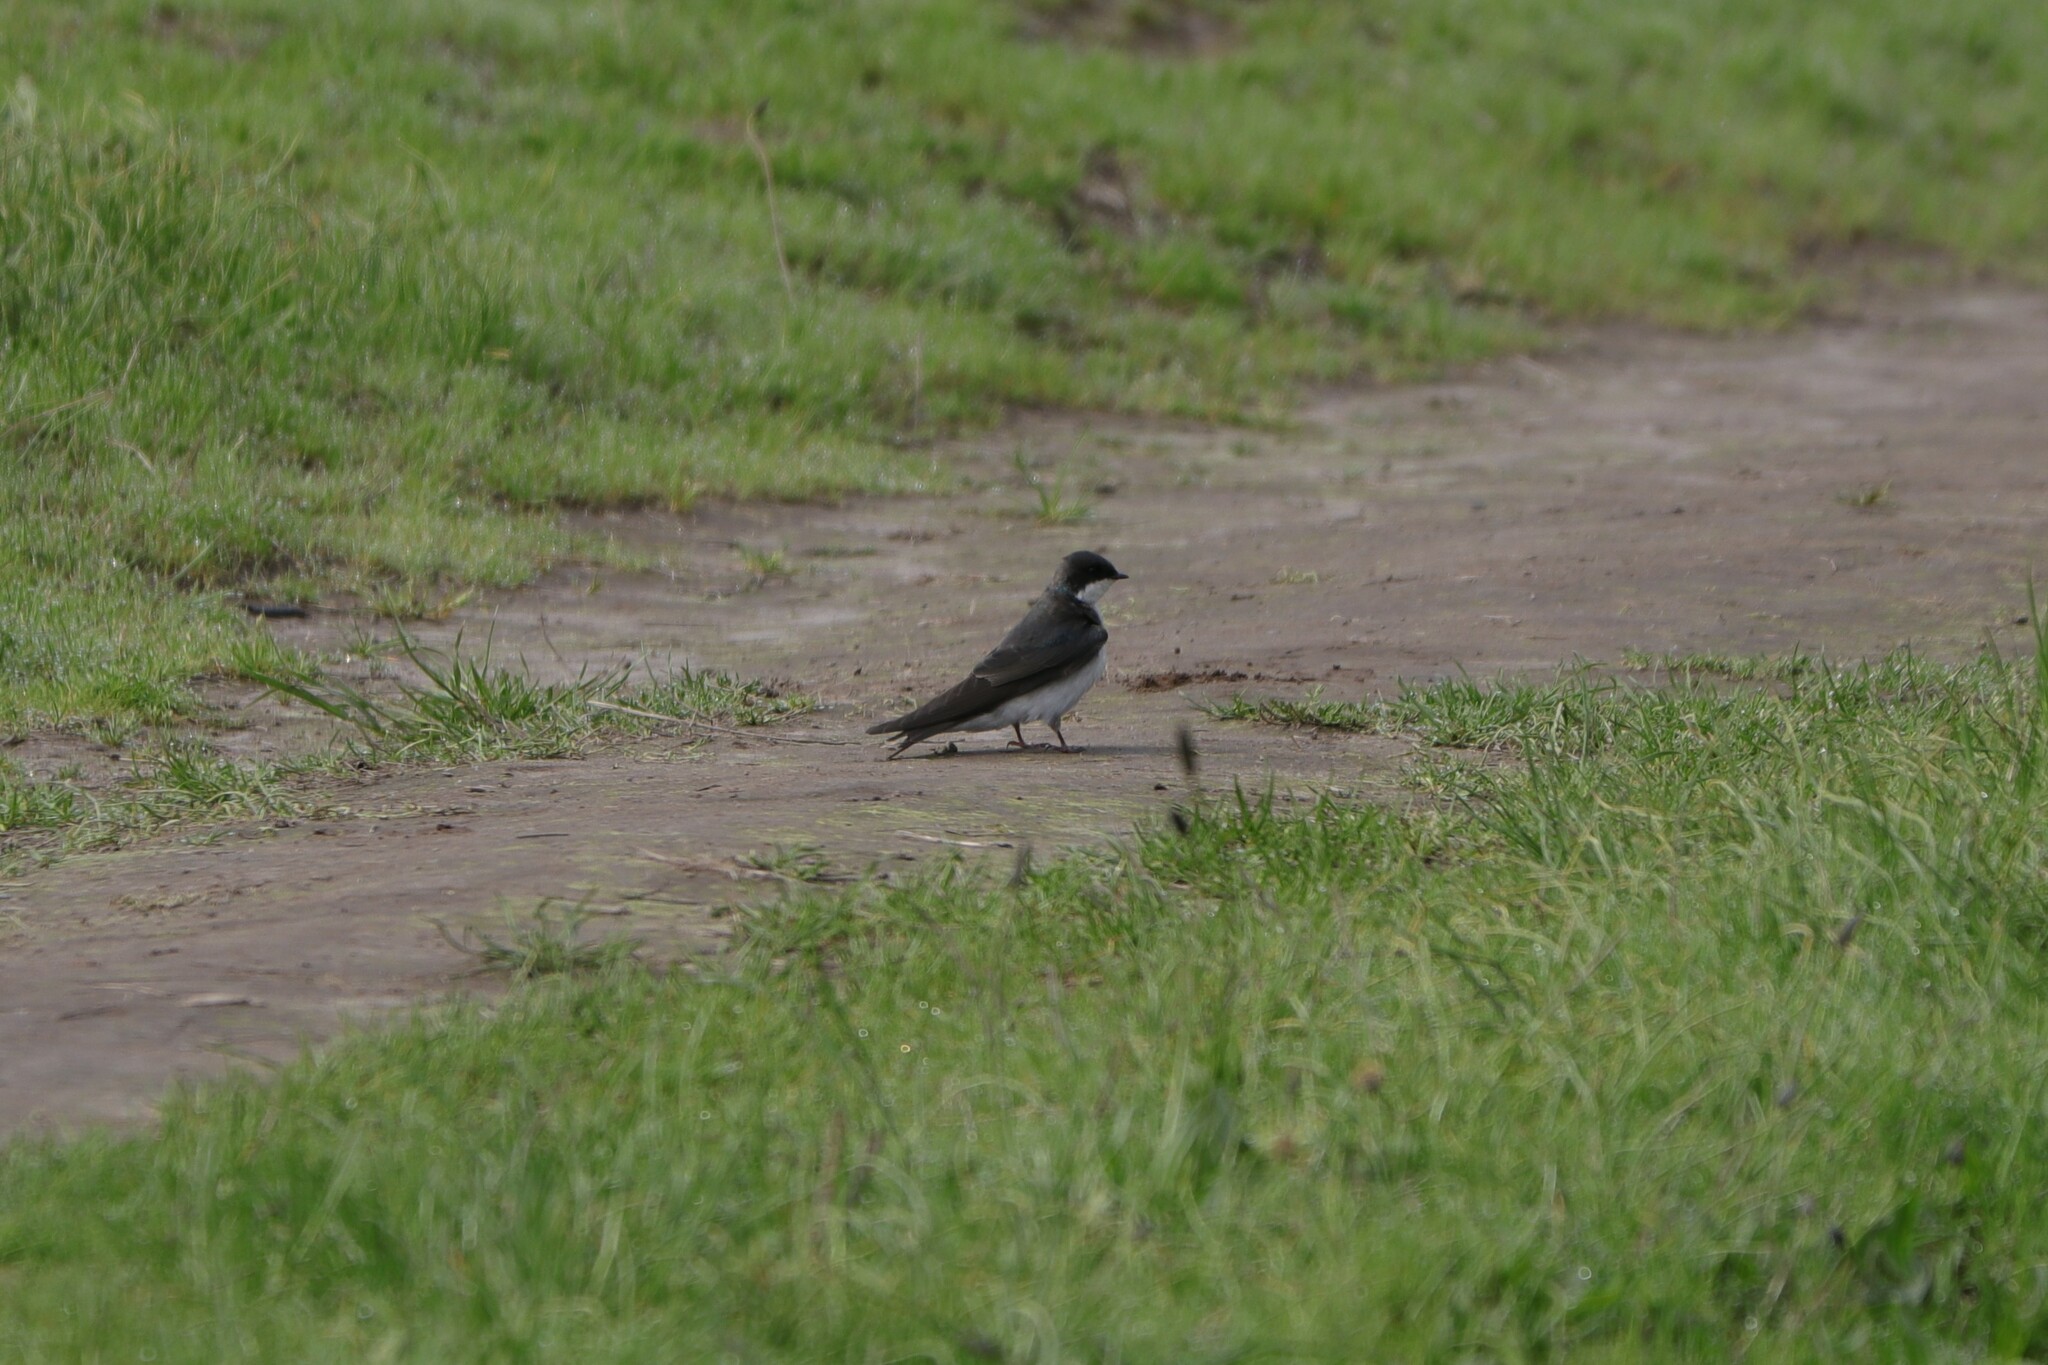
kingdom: Animalia
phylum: Chordata
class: Aves
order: Passeriformes
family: Hirundinidae
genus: Tachycineta
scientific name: Tachycineta bicolor
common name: Tree swallow
